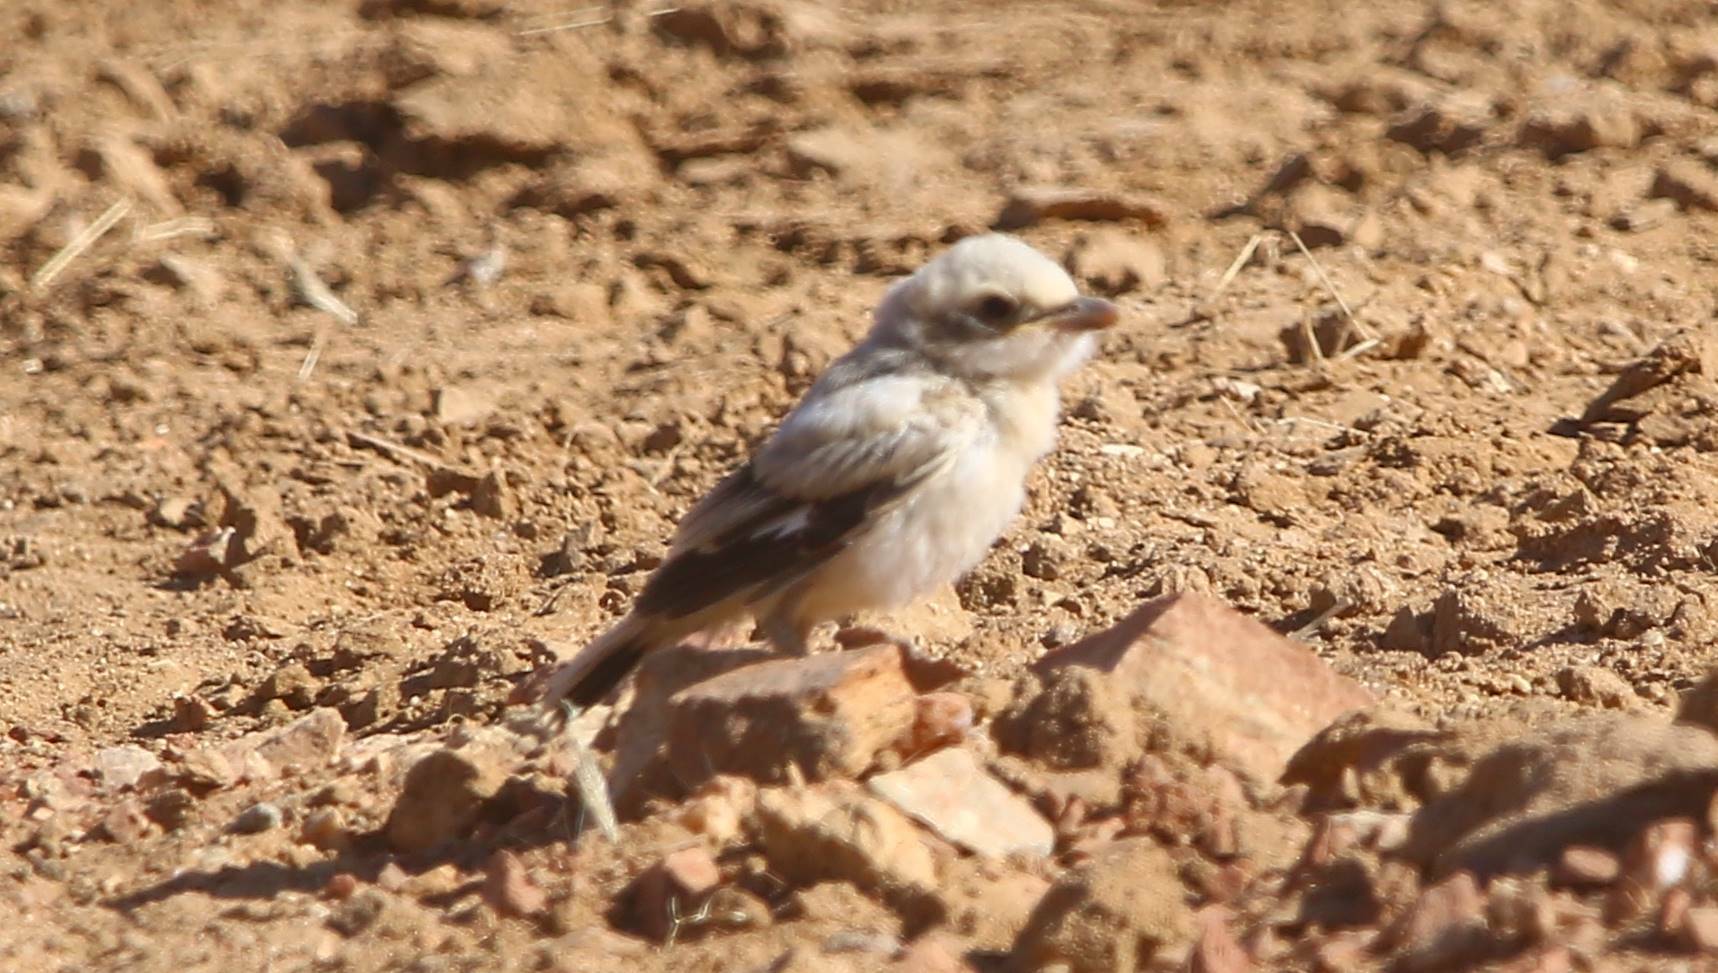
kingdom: Animalia
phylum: Chordata
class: Aves
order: Passeriformes
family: Laniidae
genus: Lanius
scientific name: Lanius excubitor
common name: Great grey shrike
